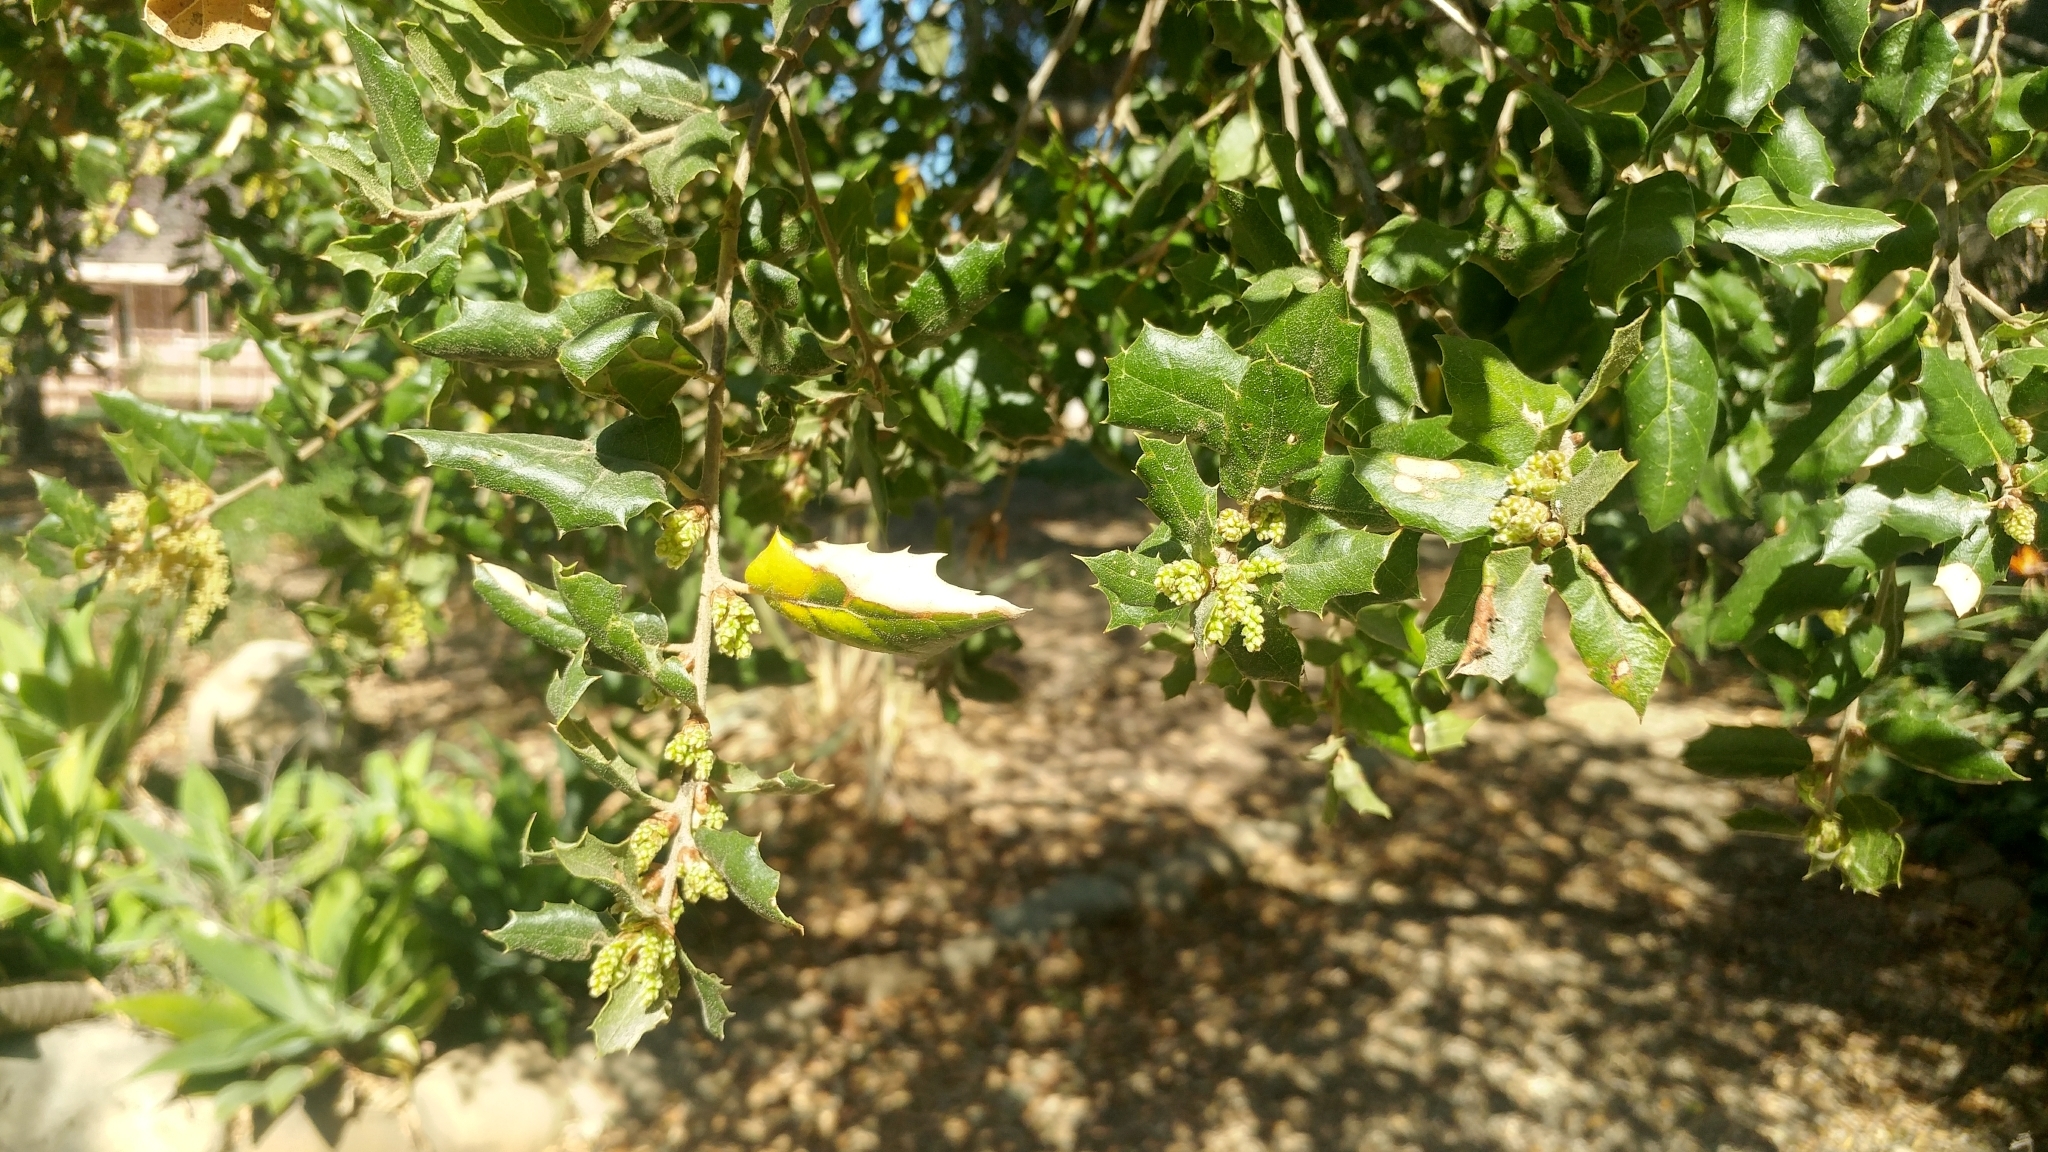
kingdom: Plantae
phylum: Tracheophyta
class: Magnoliopsida
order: Fagales
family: Fagaceae
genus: Quercus
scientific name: Quercus agrifolia
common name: California live oak
